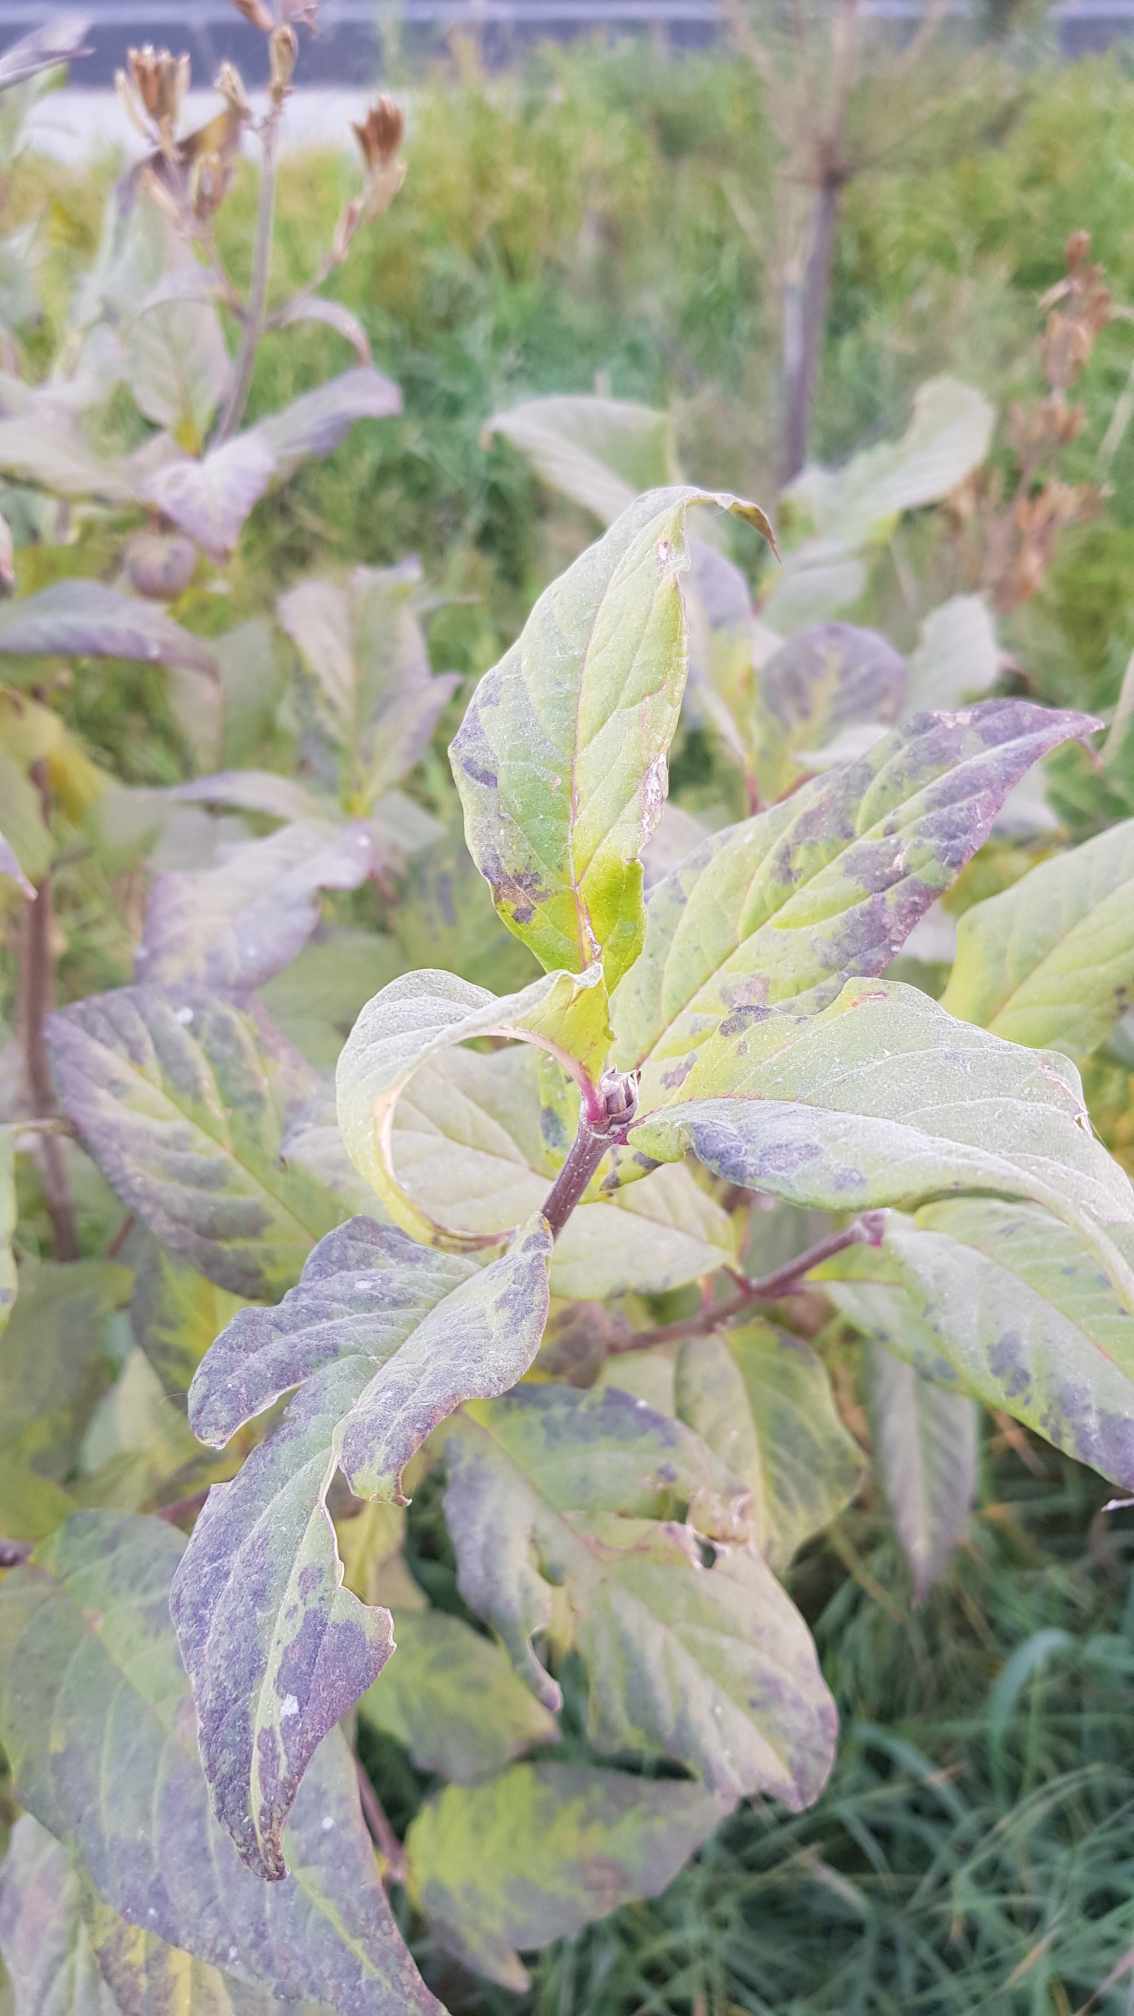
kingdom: Plantae
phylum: Tracheophyta
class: Magnoliopsida
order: Lamiales
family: Oleaceae
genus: Syringa
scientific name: Syringa josikaea
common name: Hungarian lilac
